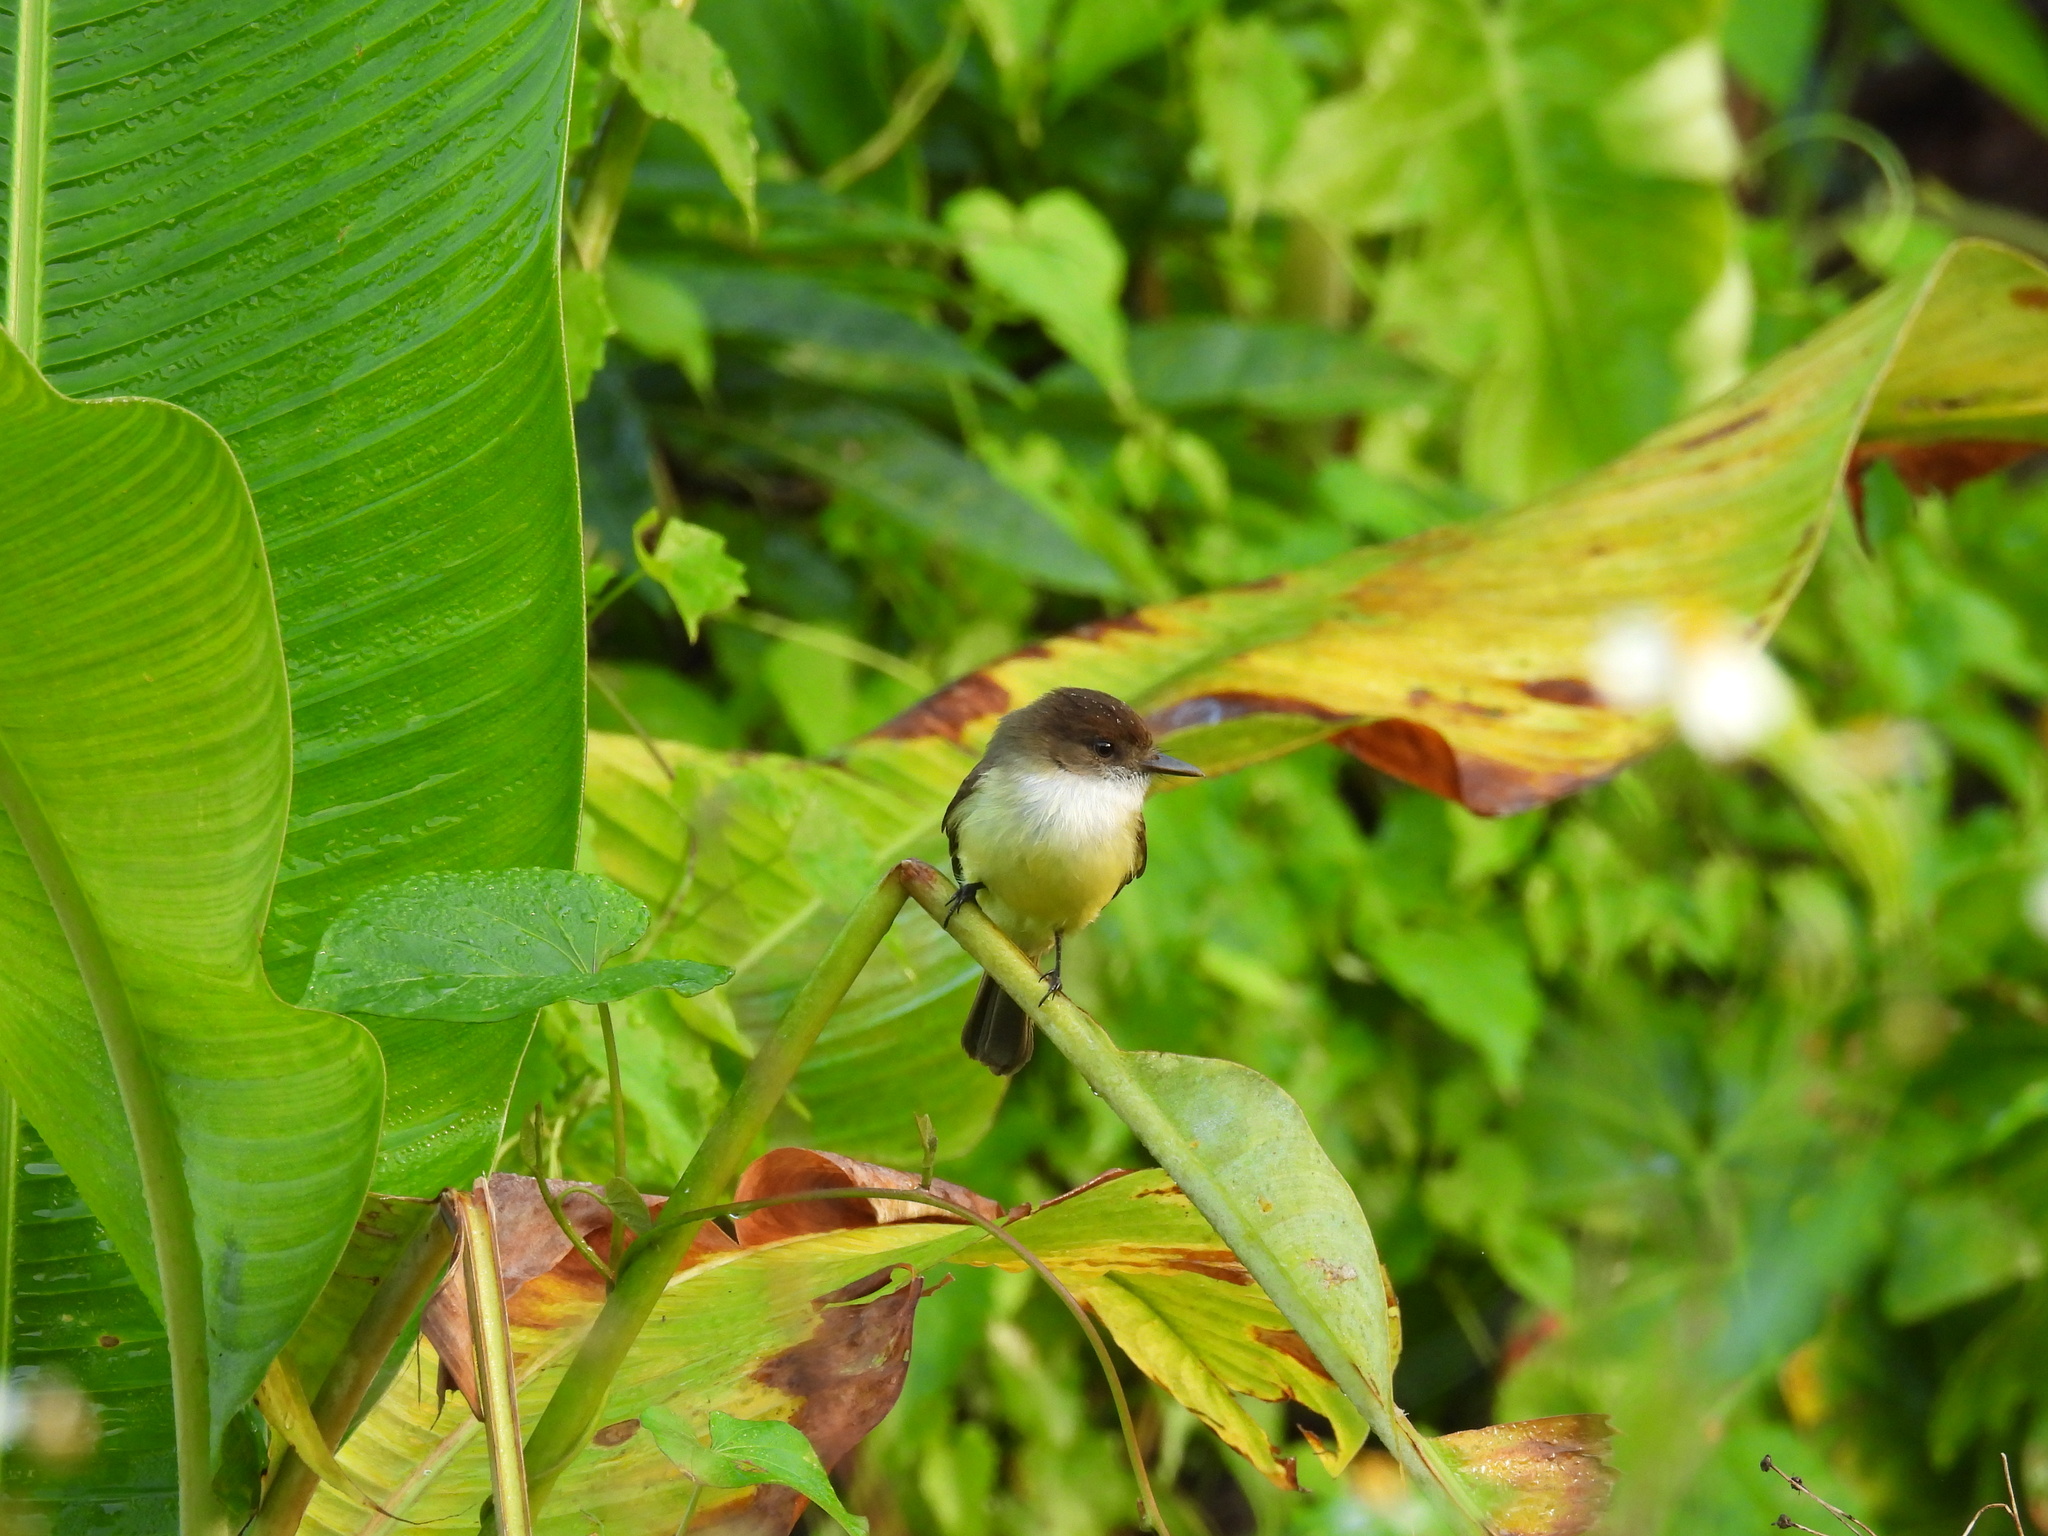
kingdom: Animalia
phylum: Chordata
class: Aves
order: Passeriformes
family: Tyrannidae
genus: Myiarchus
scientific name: Myiarchus barbirostris
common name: Sad flycatcher
